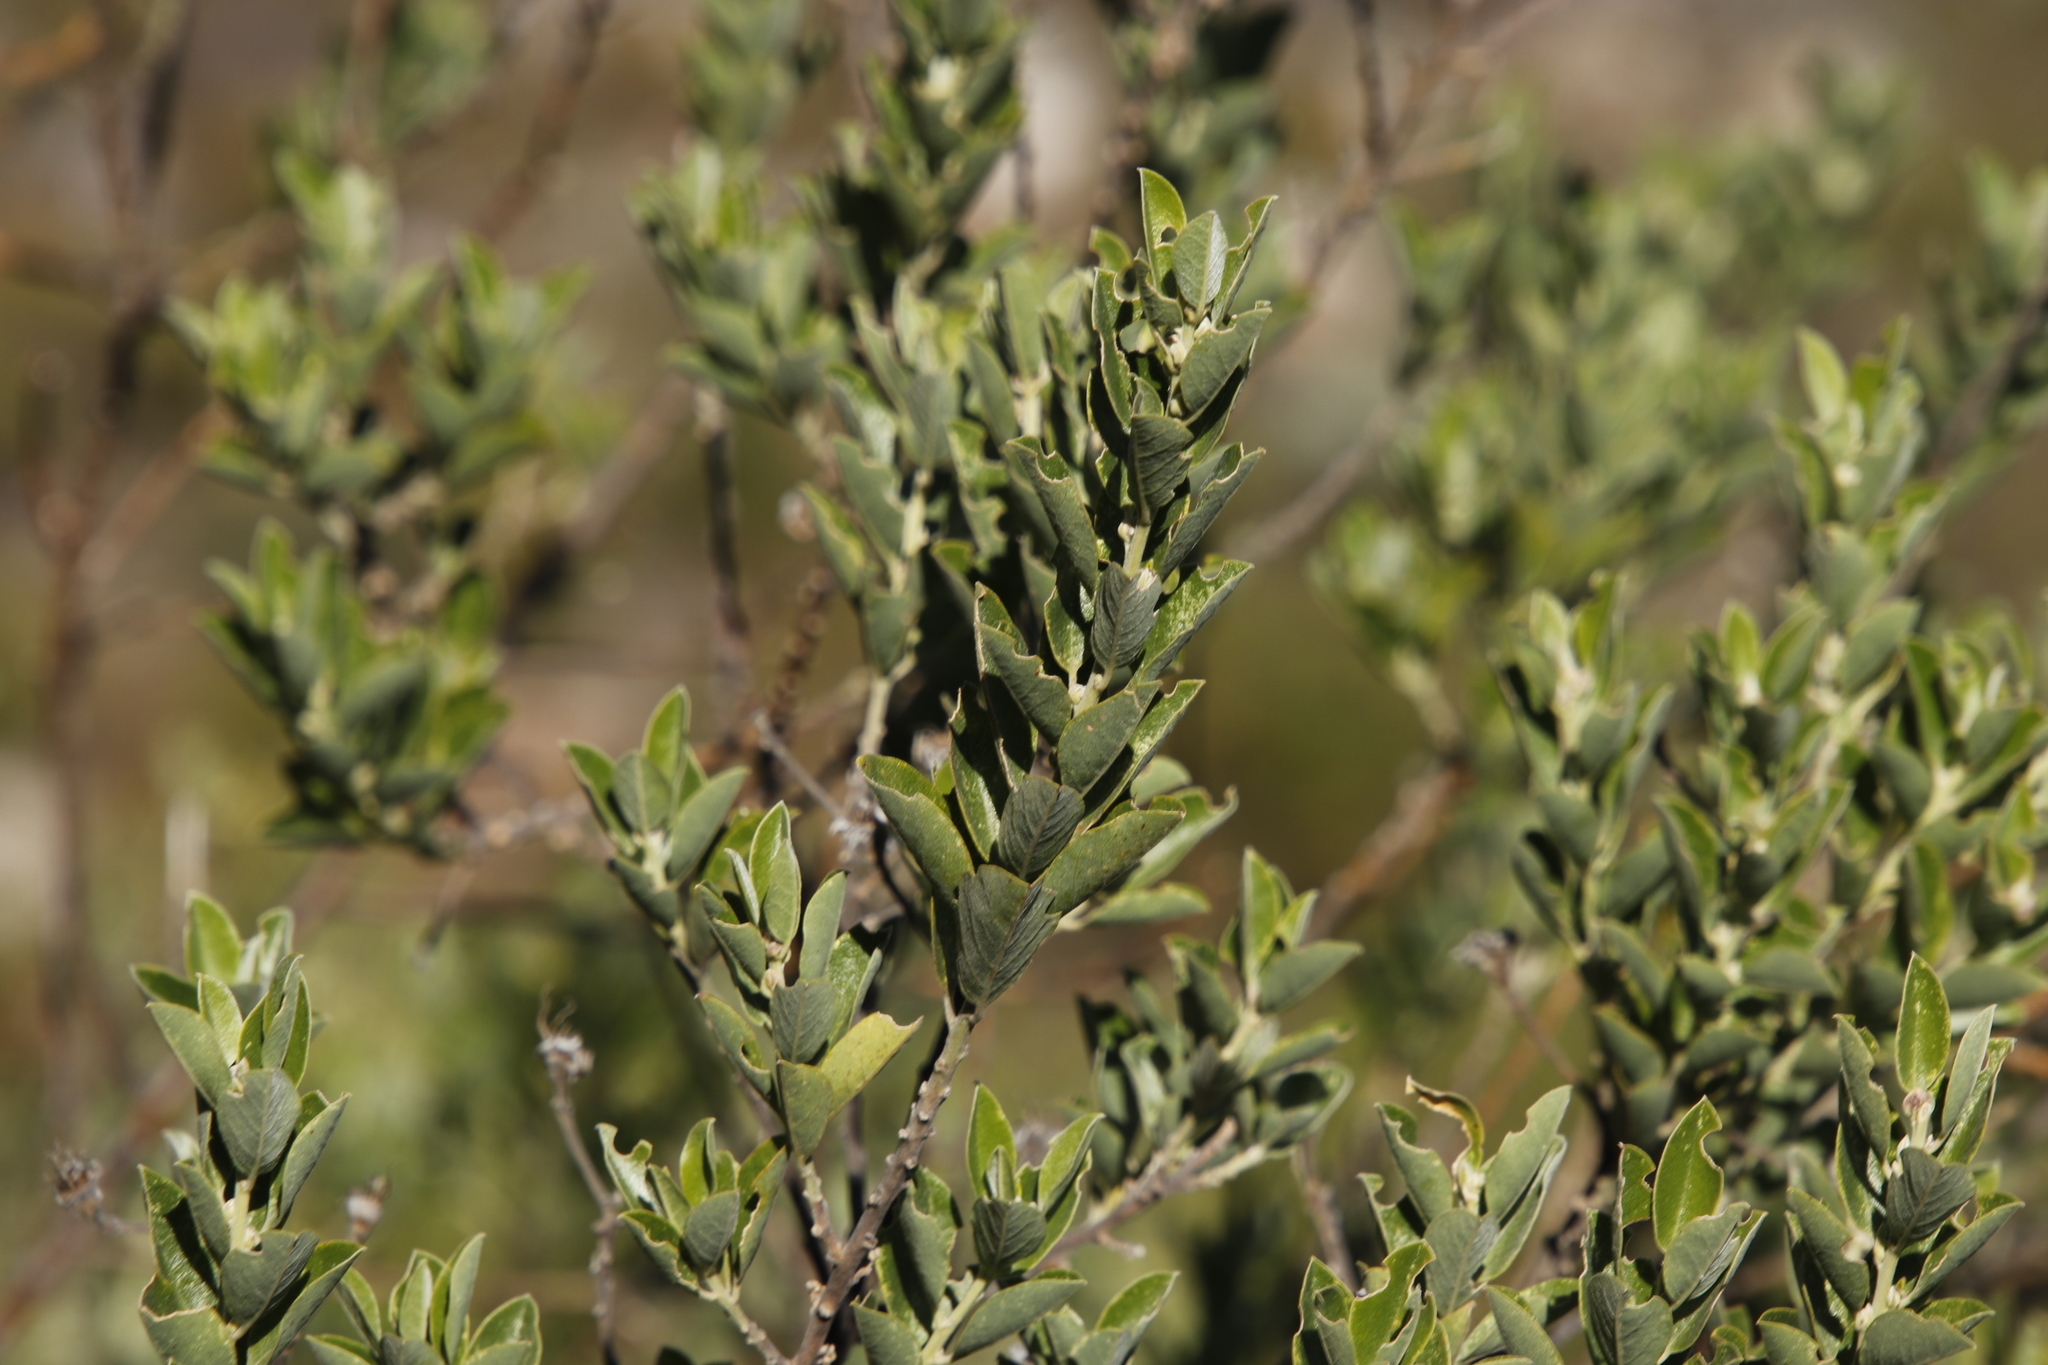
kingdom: Plantae
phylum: Tracheophyta
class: Magnoliopsida
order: Fabales
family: Fabaceae
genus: Podalyria
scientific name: Podalyria calyptrata
